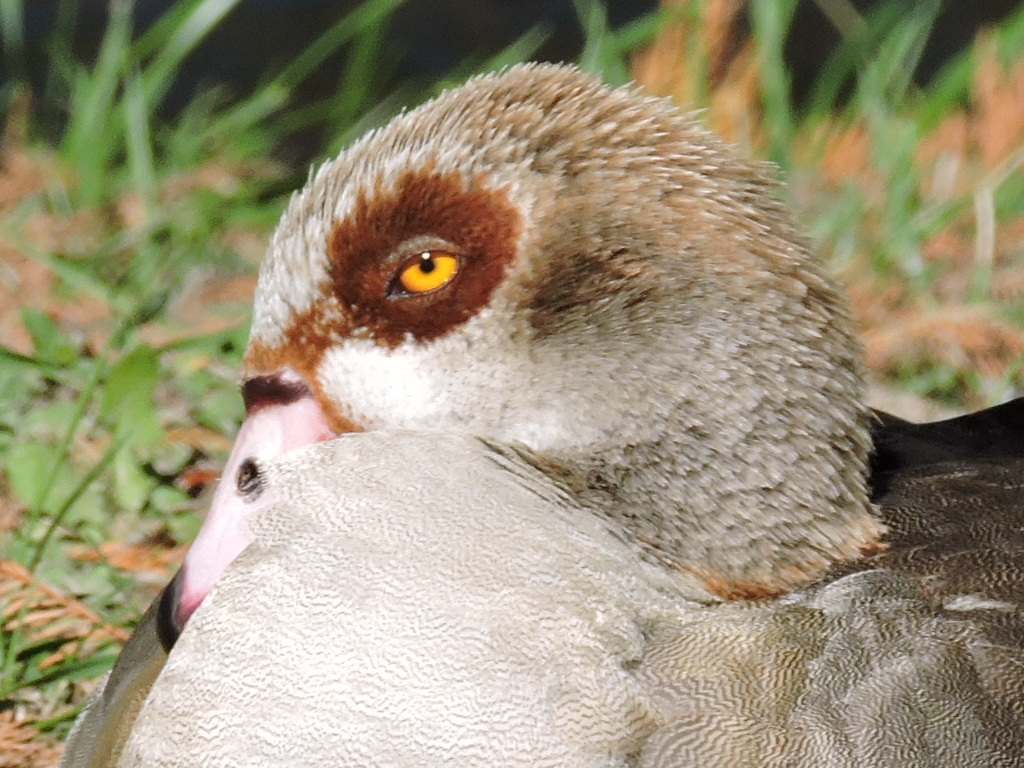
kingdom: Animalia
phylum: Chordata
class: Aves
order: Anseriformes
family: Anatidae
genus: Alopochen
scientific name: Alopochen aegyptiaca
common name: Egyptian goose
